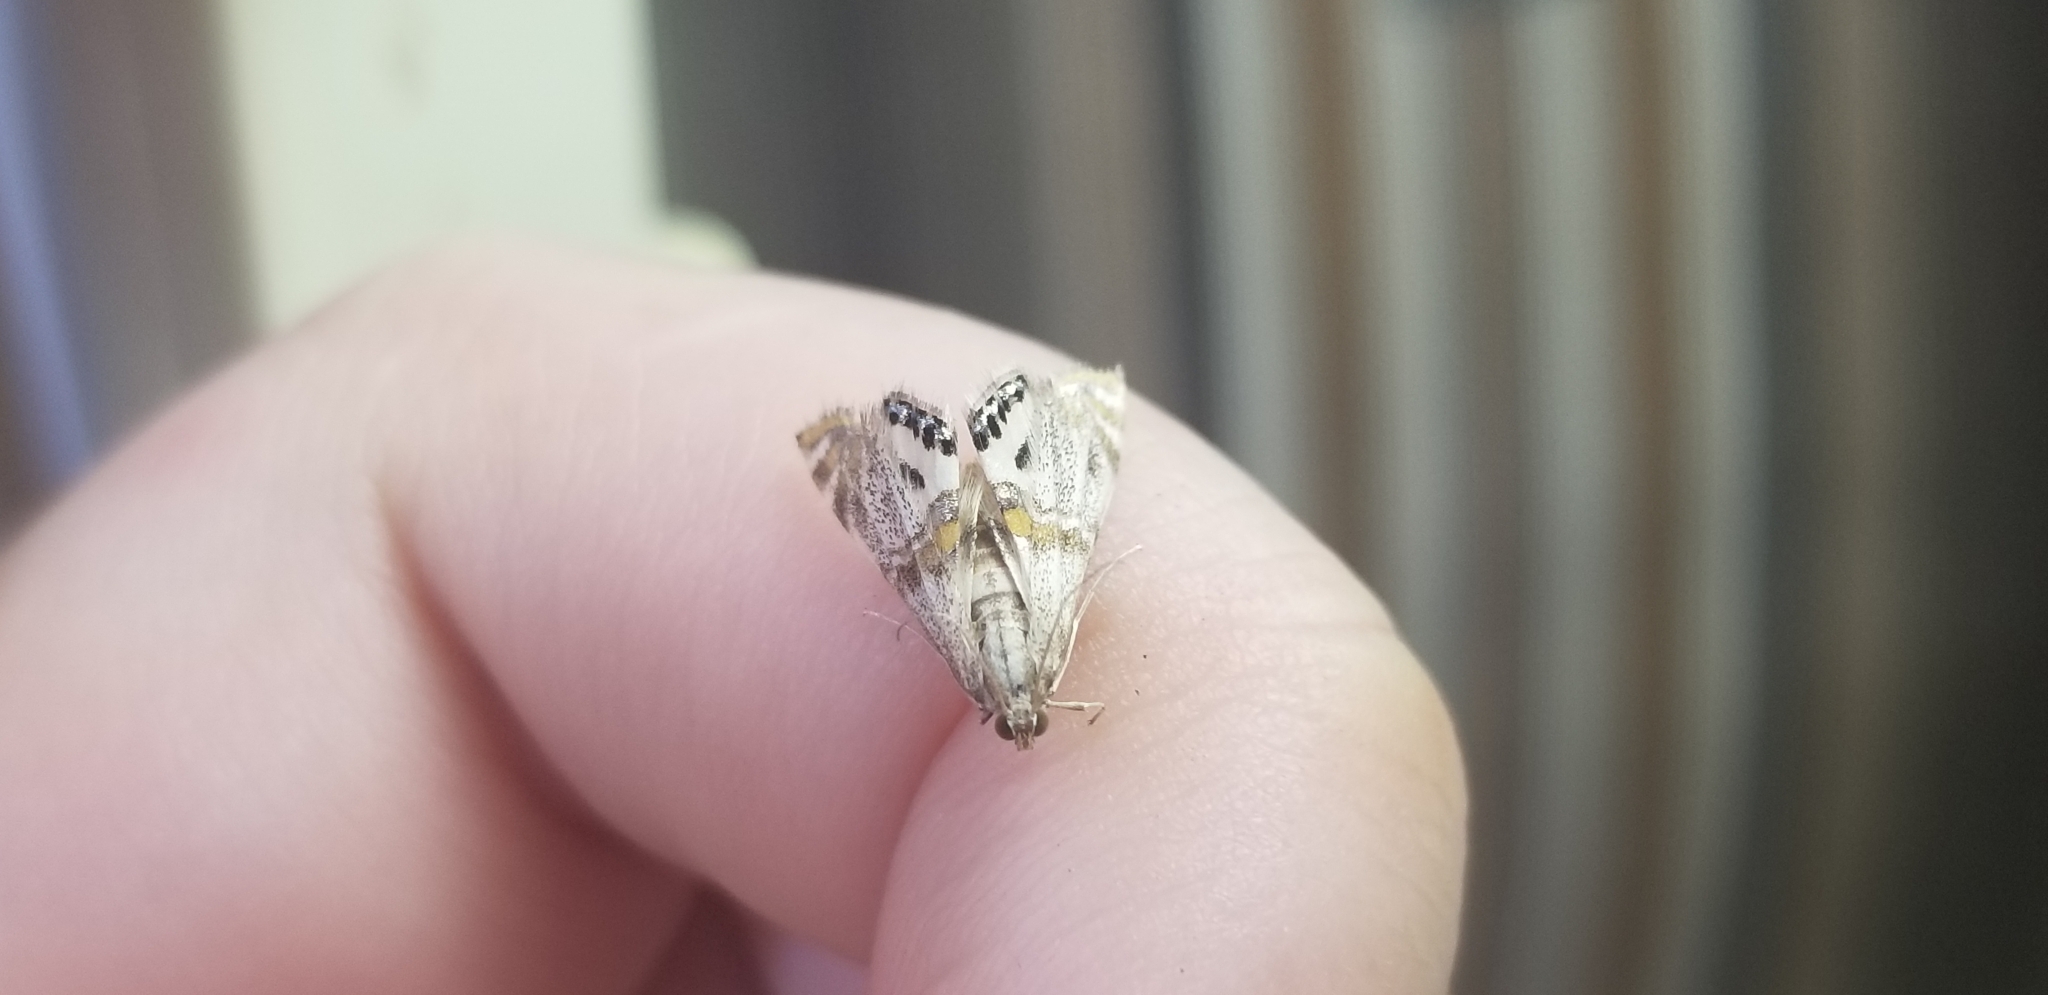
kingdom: Animalia
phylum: Arthropoda
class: Insecta
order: Lepidoptera
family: Crambidae
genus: Petrophila
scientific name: Petrophila bifascialis
